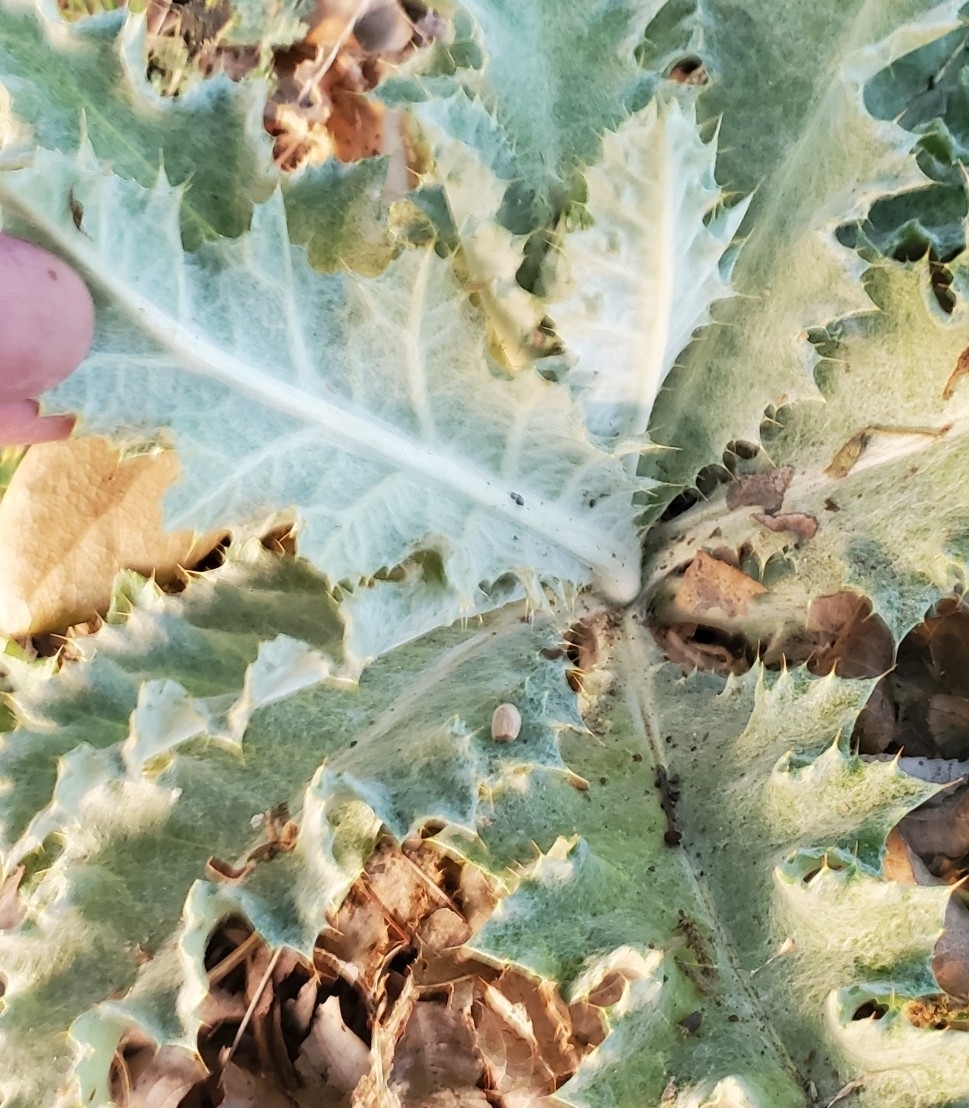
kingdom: Plantae
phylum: Tracheophyta
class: Magnoliopsida
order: Asterales
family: Asteraceae
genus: Cirsium
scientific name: Cirsium undulatum
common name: Pasture thistle
